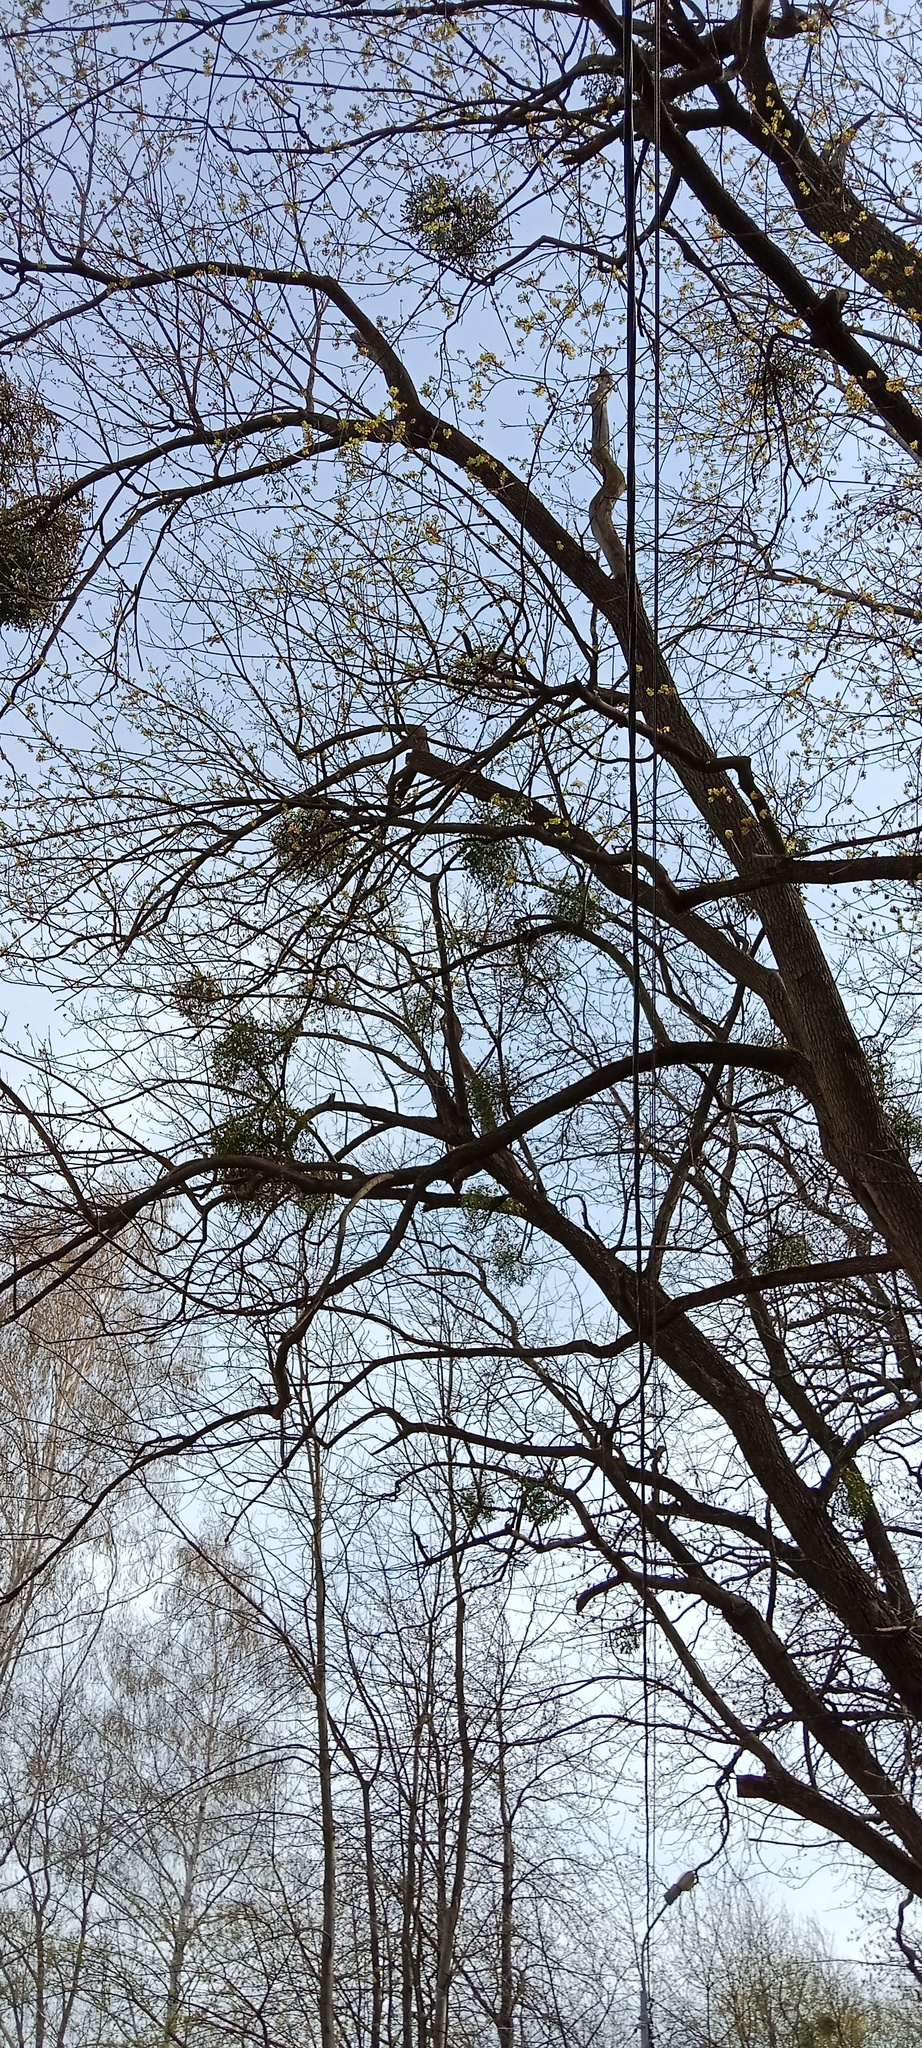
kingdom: Plantae
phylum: Tracheophyta
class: Magnoliopsida
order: Santalales
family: Viscaceae
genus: Viscum
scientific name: Viscum album
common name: Mistletoe
